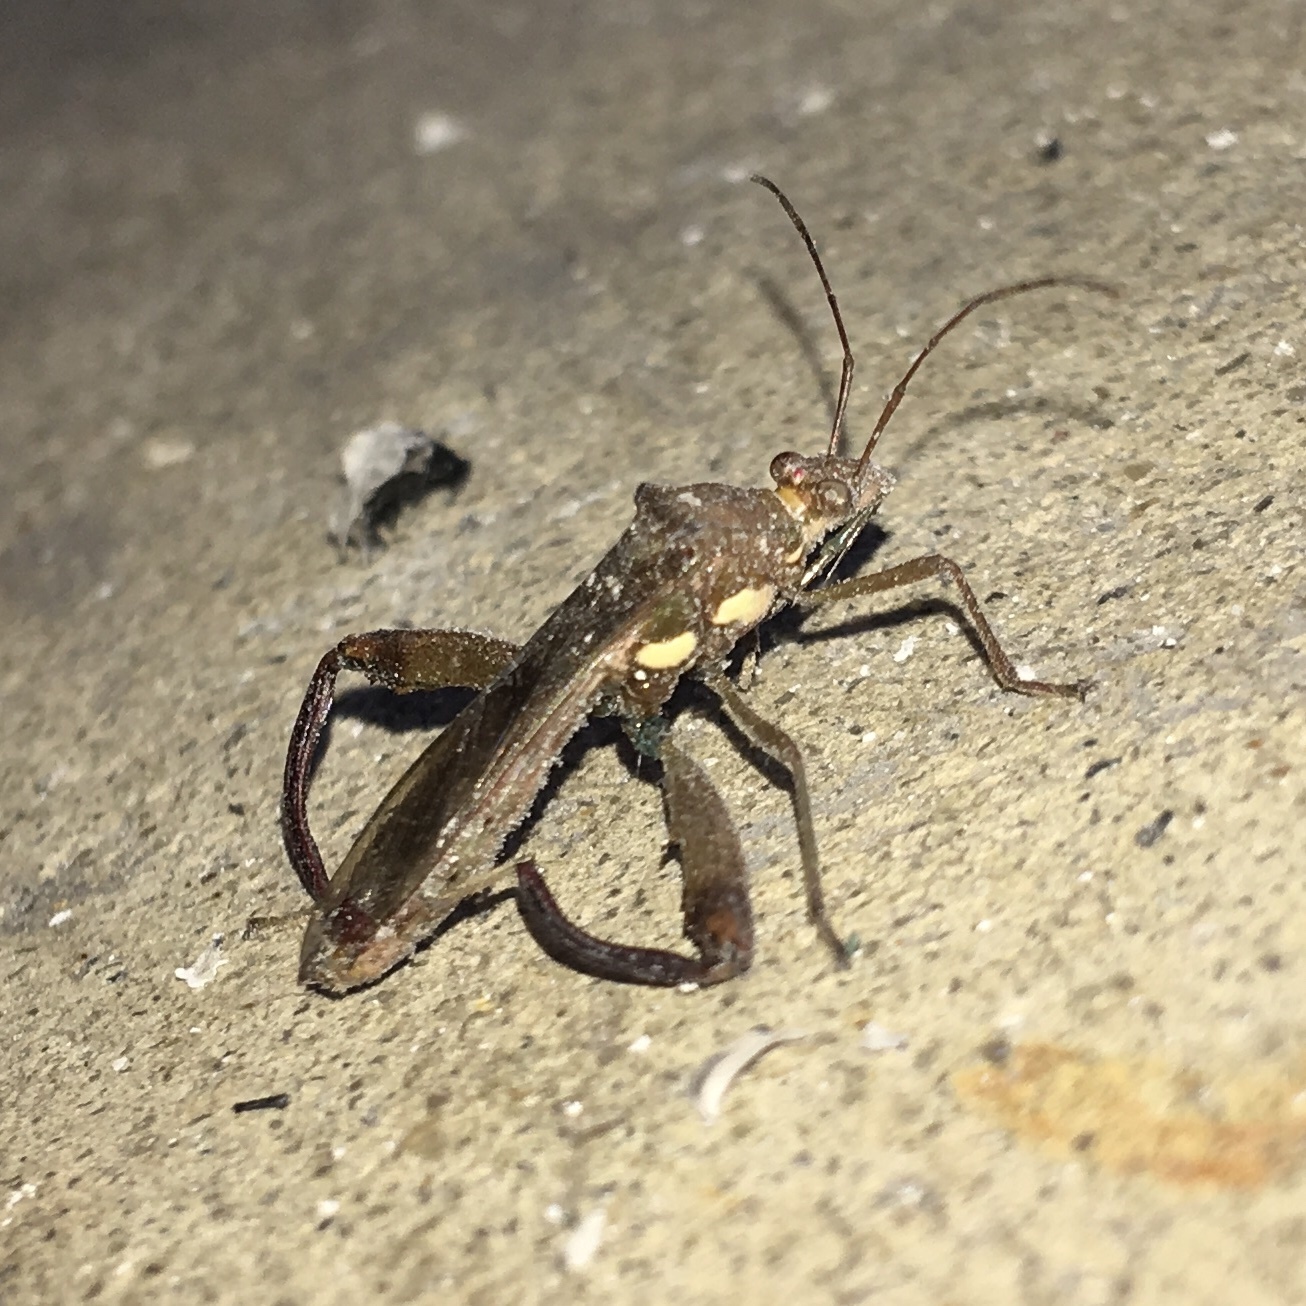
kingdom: Animalia
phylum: Arthropoda
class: Insecta
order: Hemiptera
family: Alydidae
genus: Hyalymenus
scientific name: Hyalymenus tarsatus
